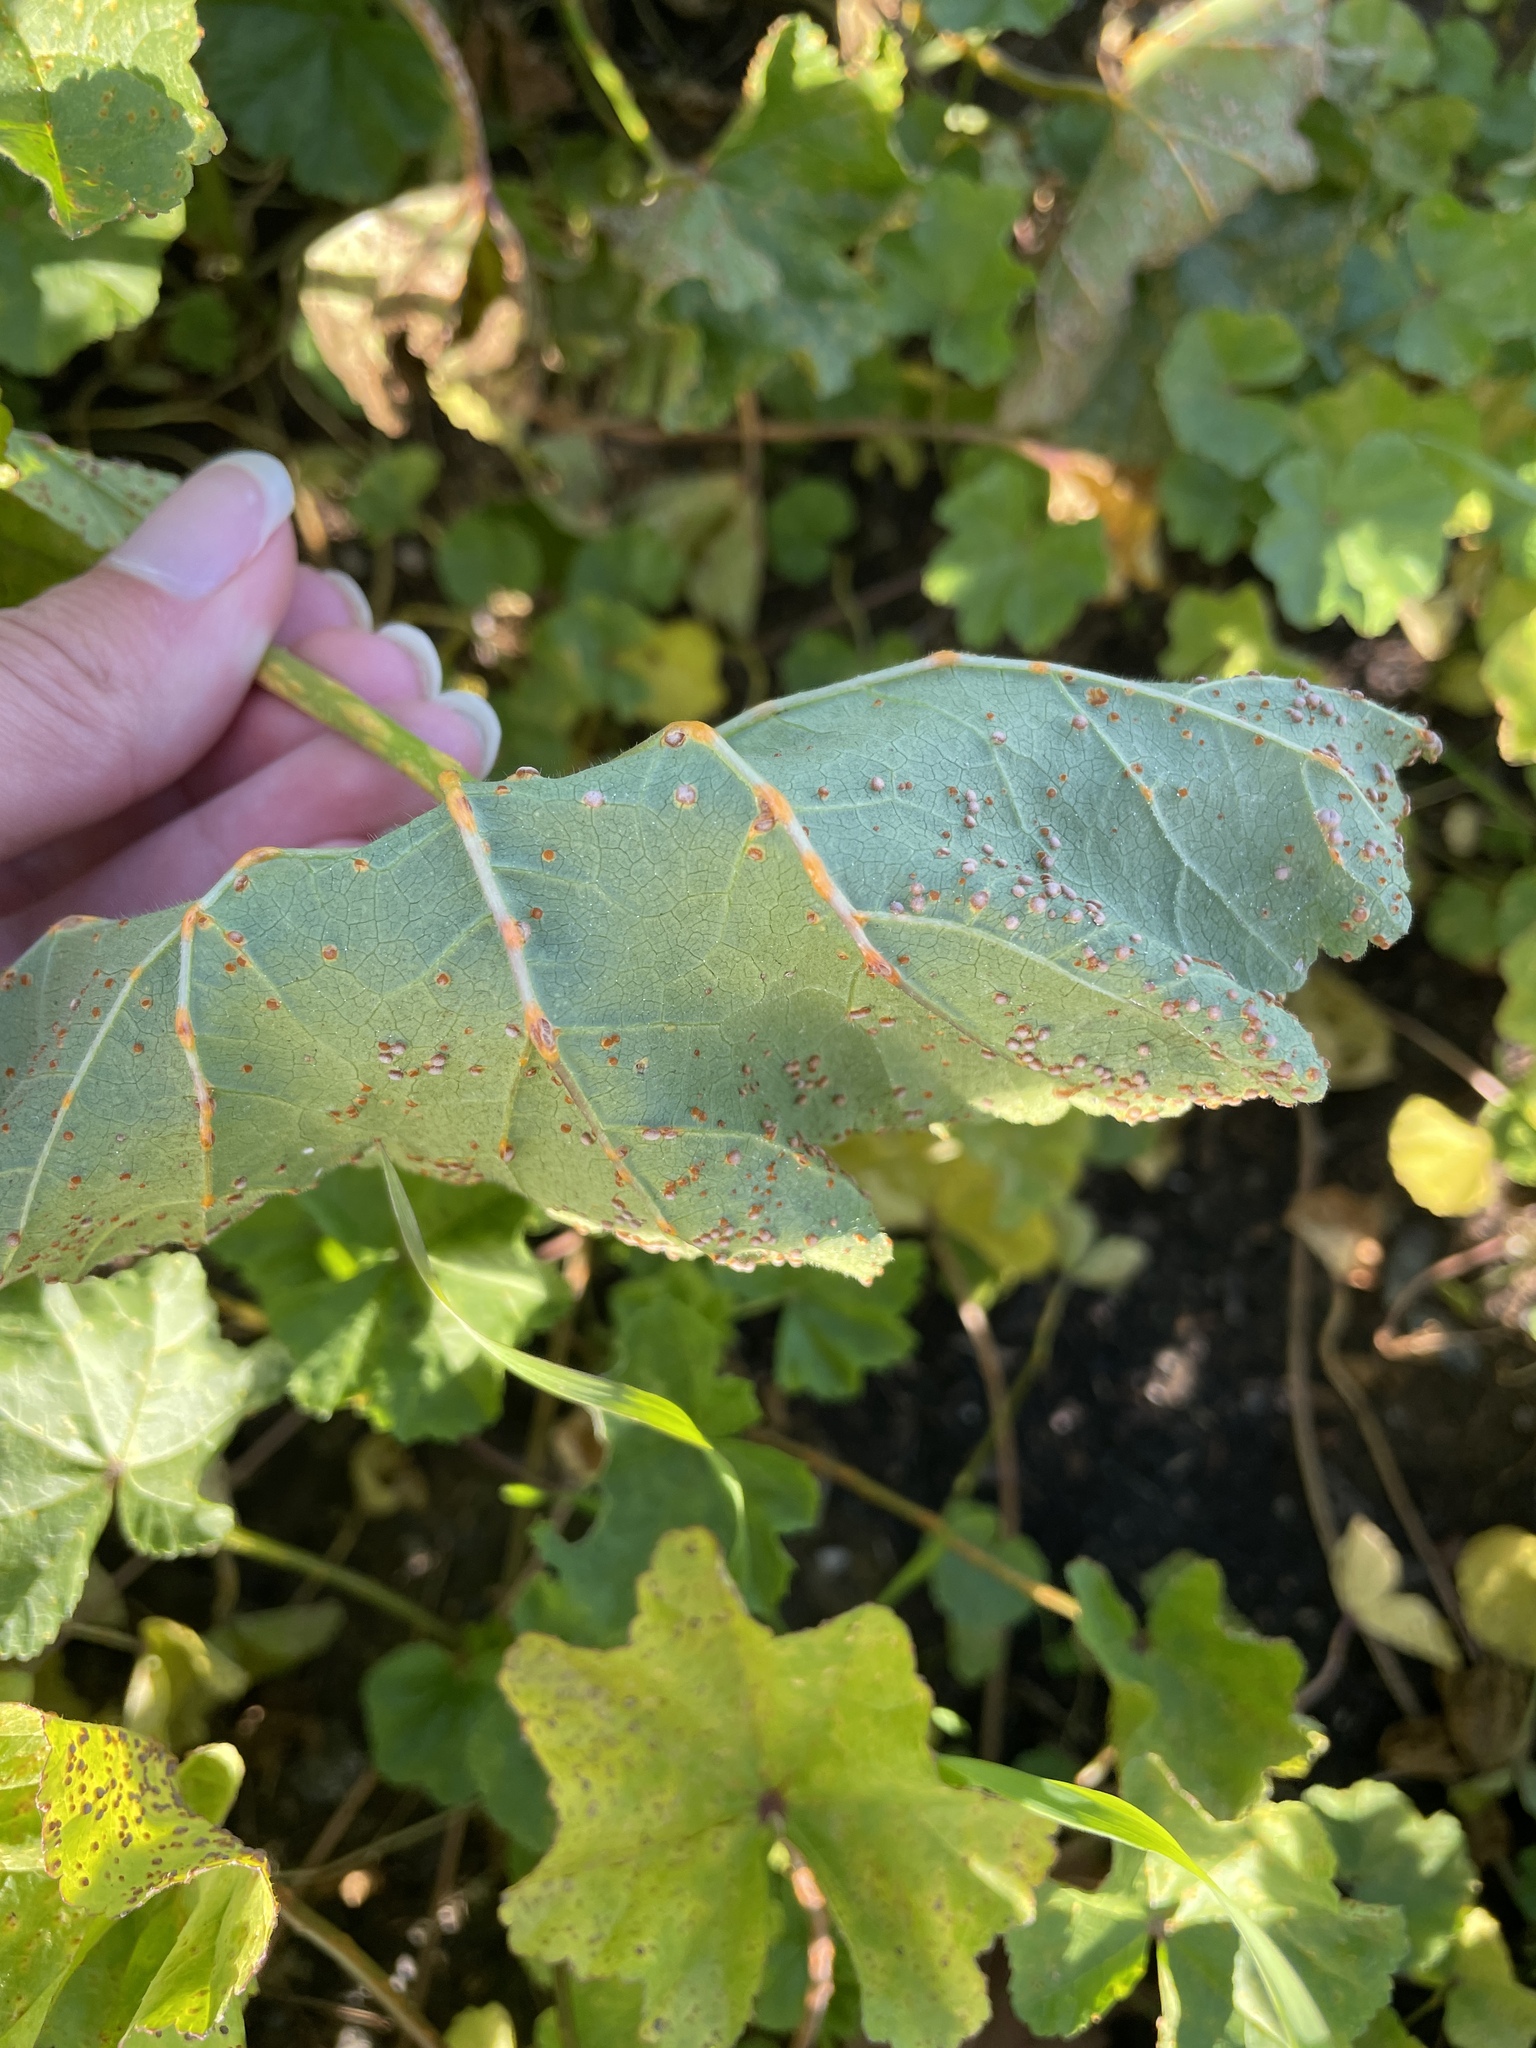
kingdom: Fungi
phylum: Basidiomycota
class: Pucciniomycetes
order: Pucciniales
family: Pucciniaceae
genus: Puccinia
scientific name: Puccinia malvacearum
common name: Hollyhock rust
